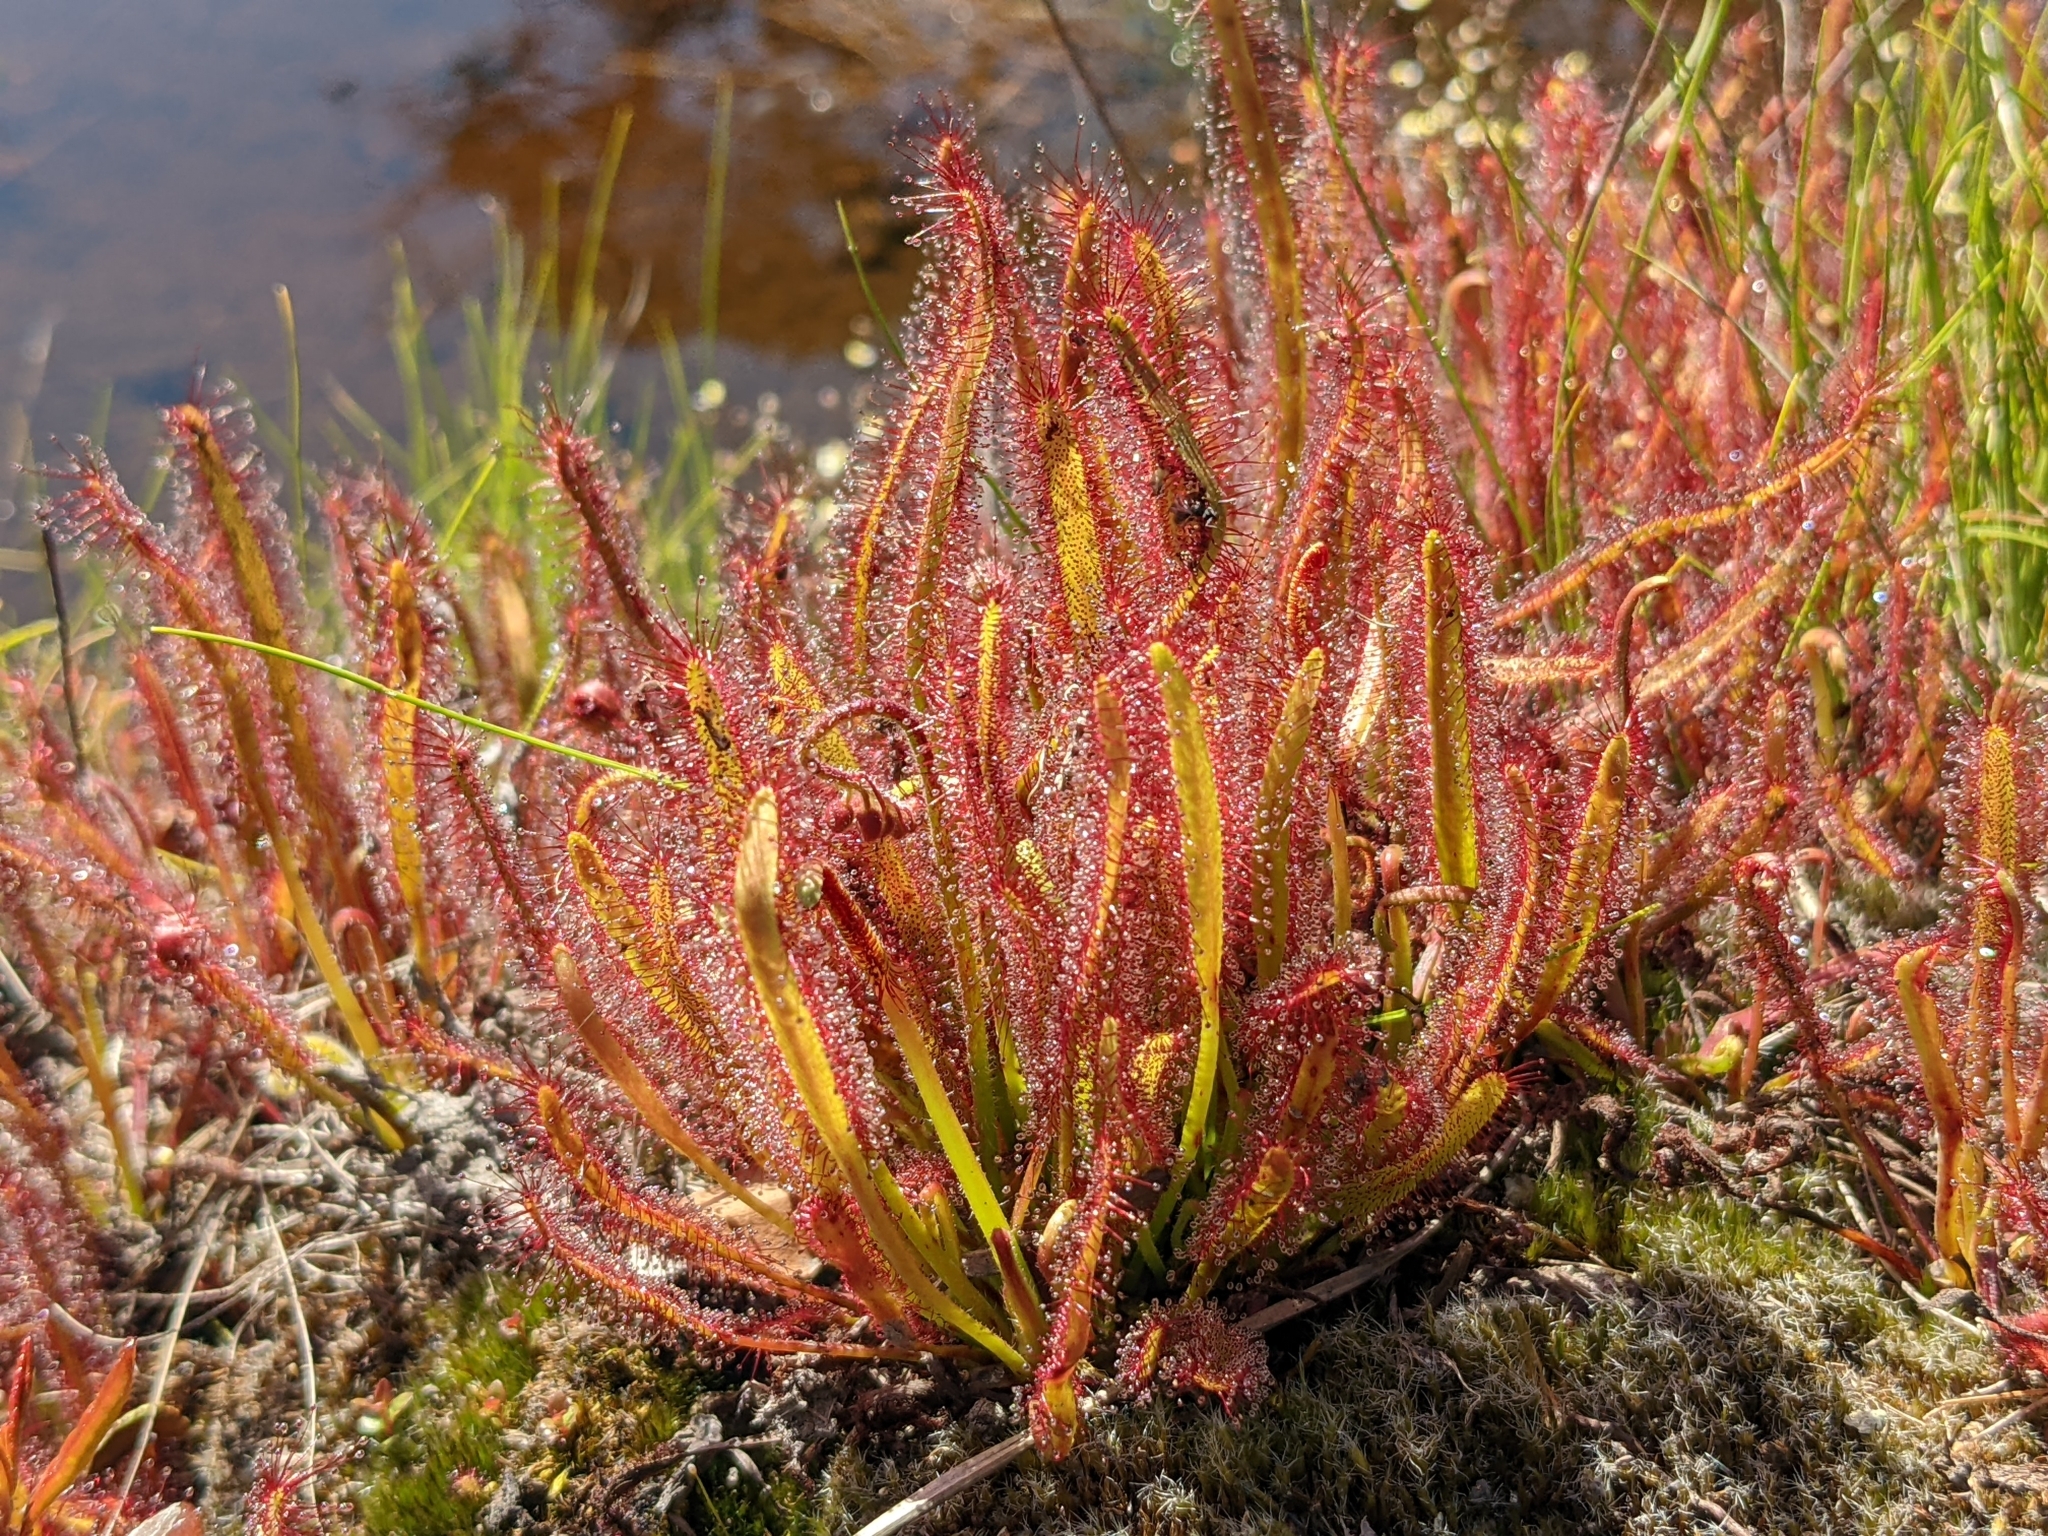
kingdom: Plantae
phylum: Tracheophyta
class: Magnoliopsida
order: Caryophyllales
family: Droseraceae
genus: Drosera
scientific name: Drosera capensis
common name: Cape sundew
